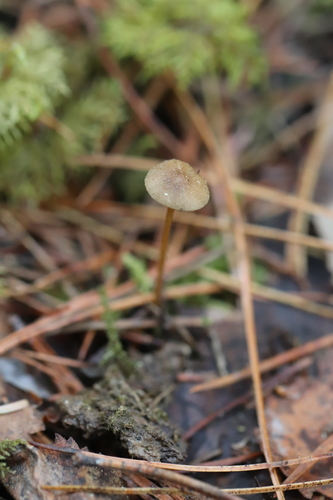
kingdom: Fungi
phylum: Basidiomycota
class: Agaricomycetes
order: Agaricales
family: Physalacriaceae
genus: Strobilurus
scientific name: Strobilurus stephanocystis
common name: Russian conecap
